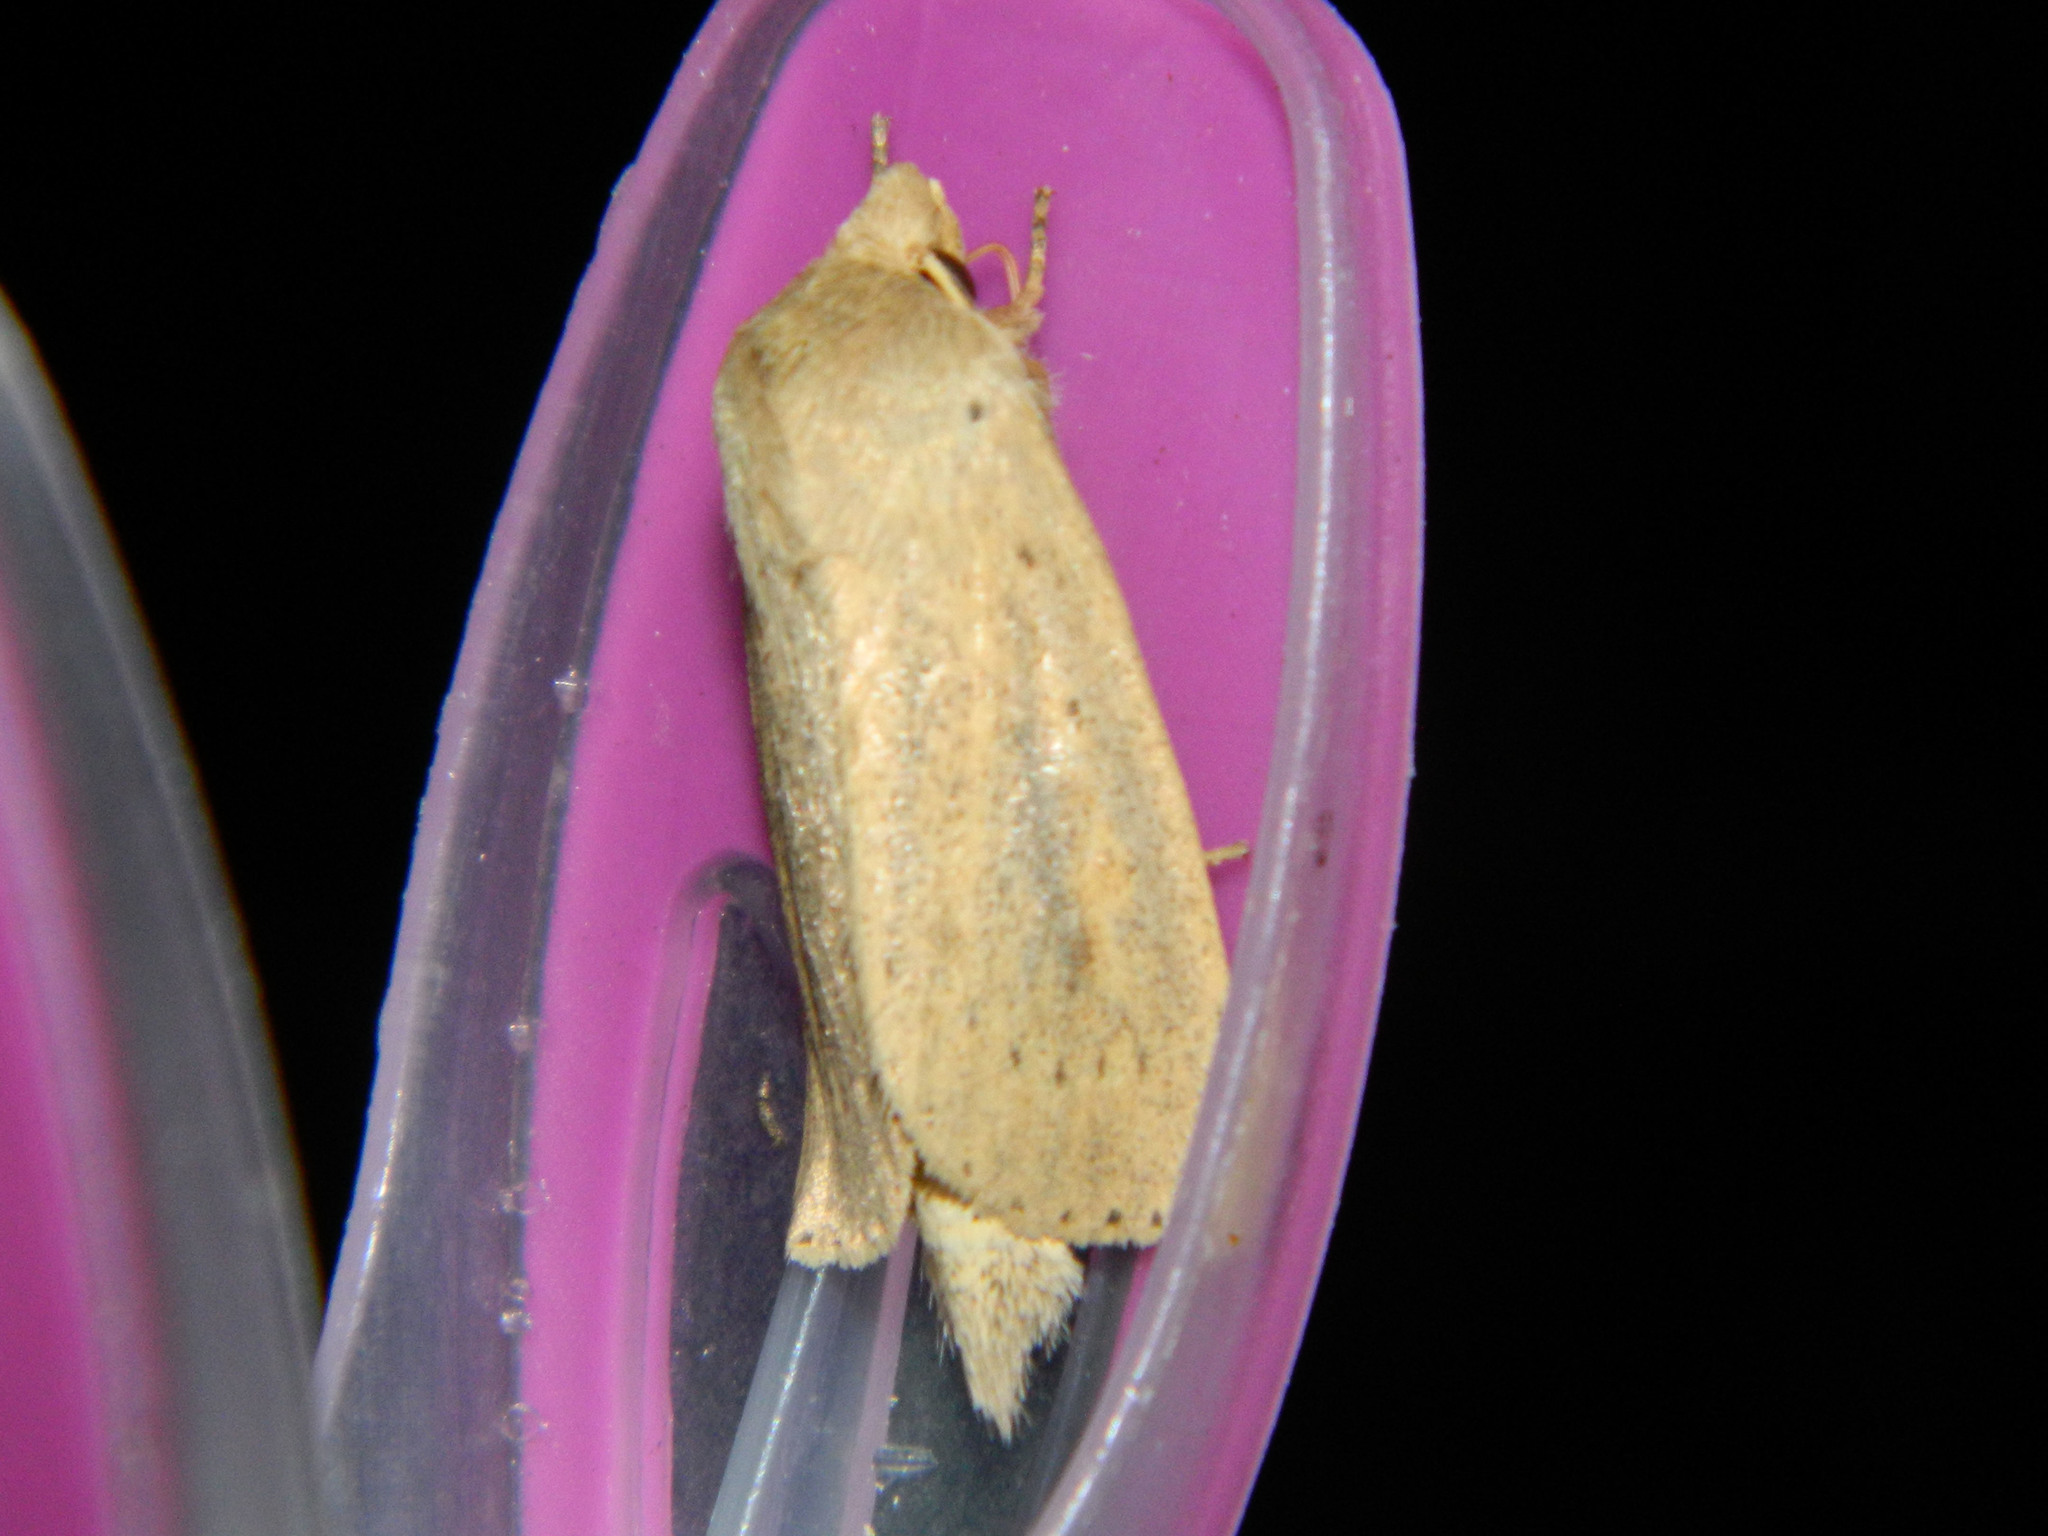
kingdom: Animalia
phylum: Arthropoda
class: Insecta
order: Lepidoptera
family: Noctuidae
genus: Globia
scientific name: Globia oblonga
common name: Oblong sedge borer moth
